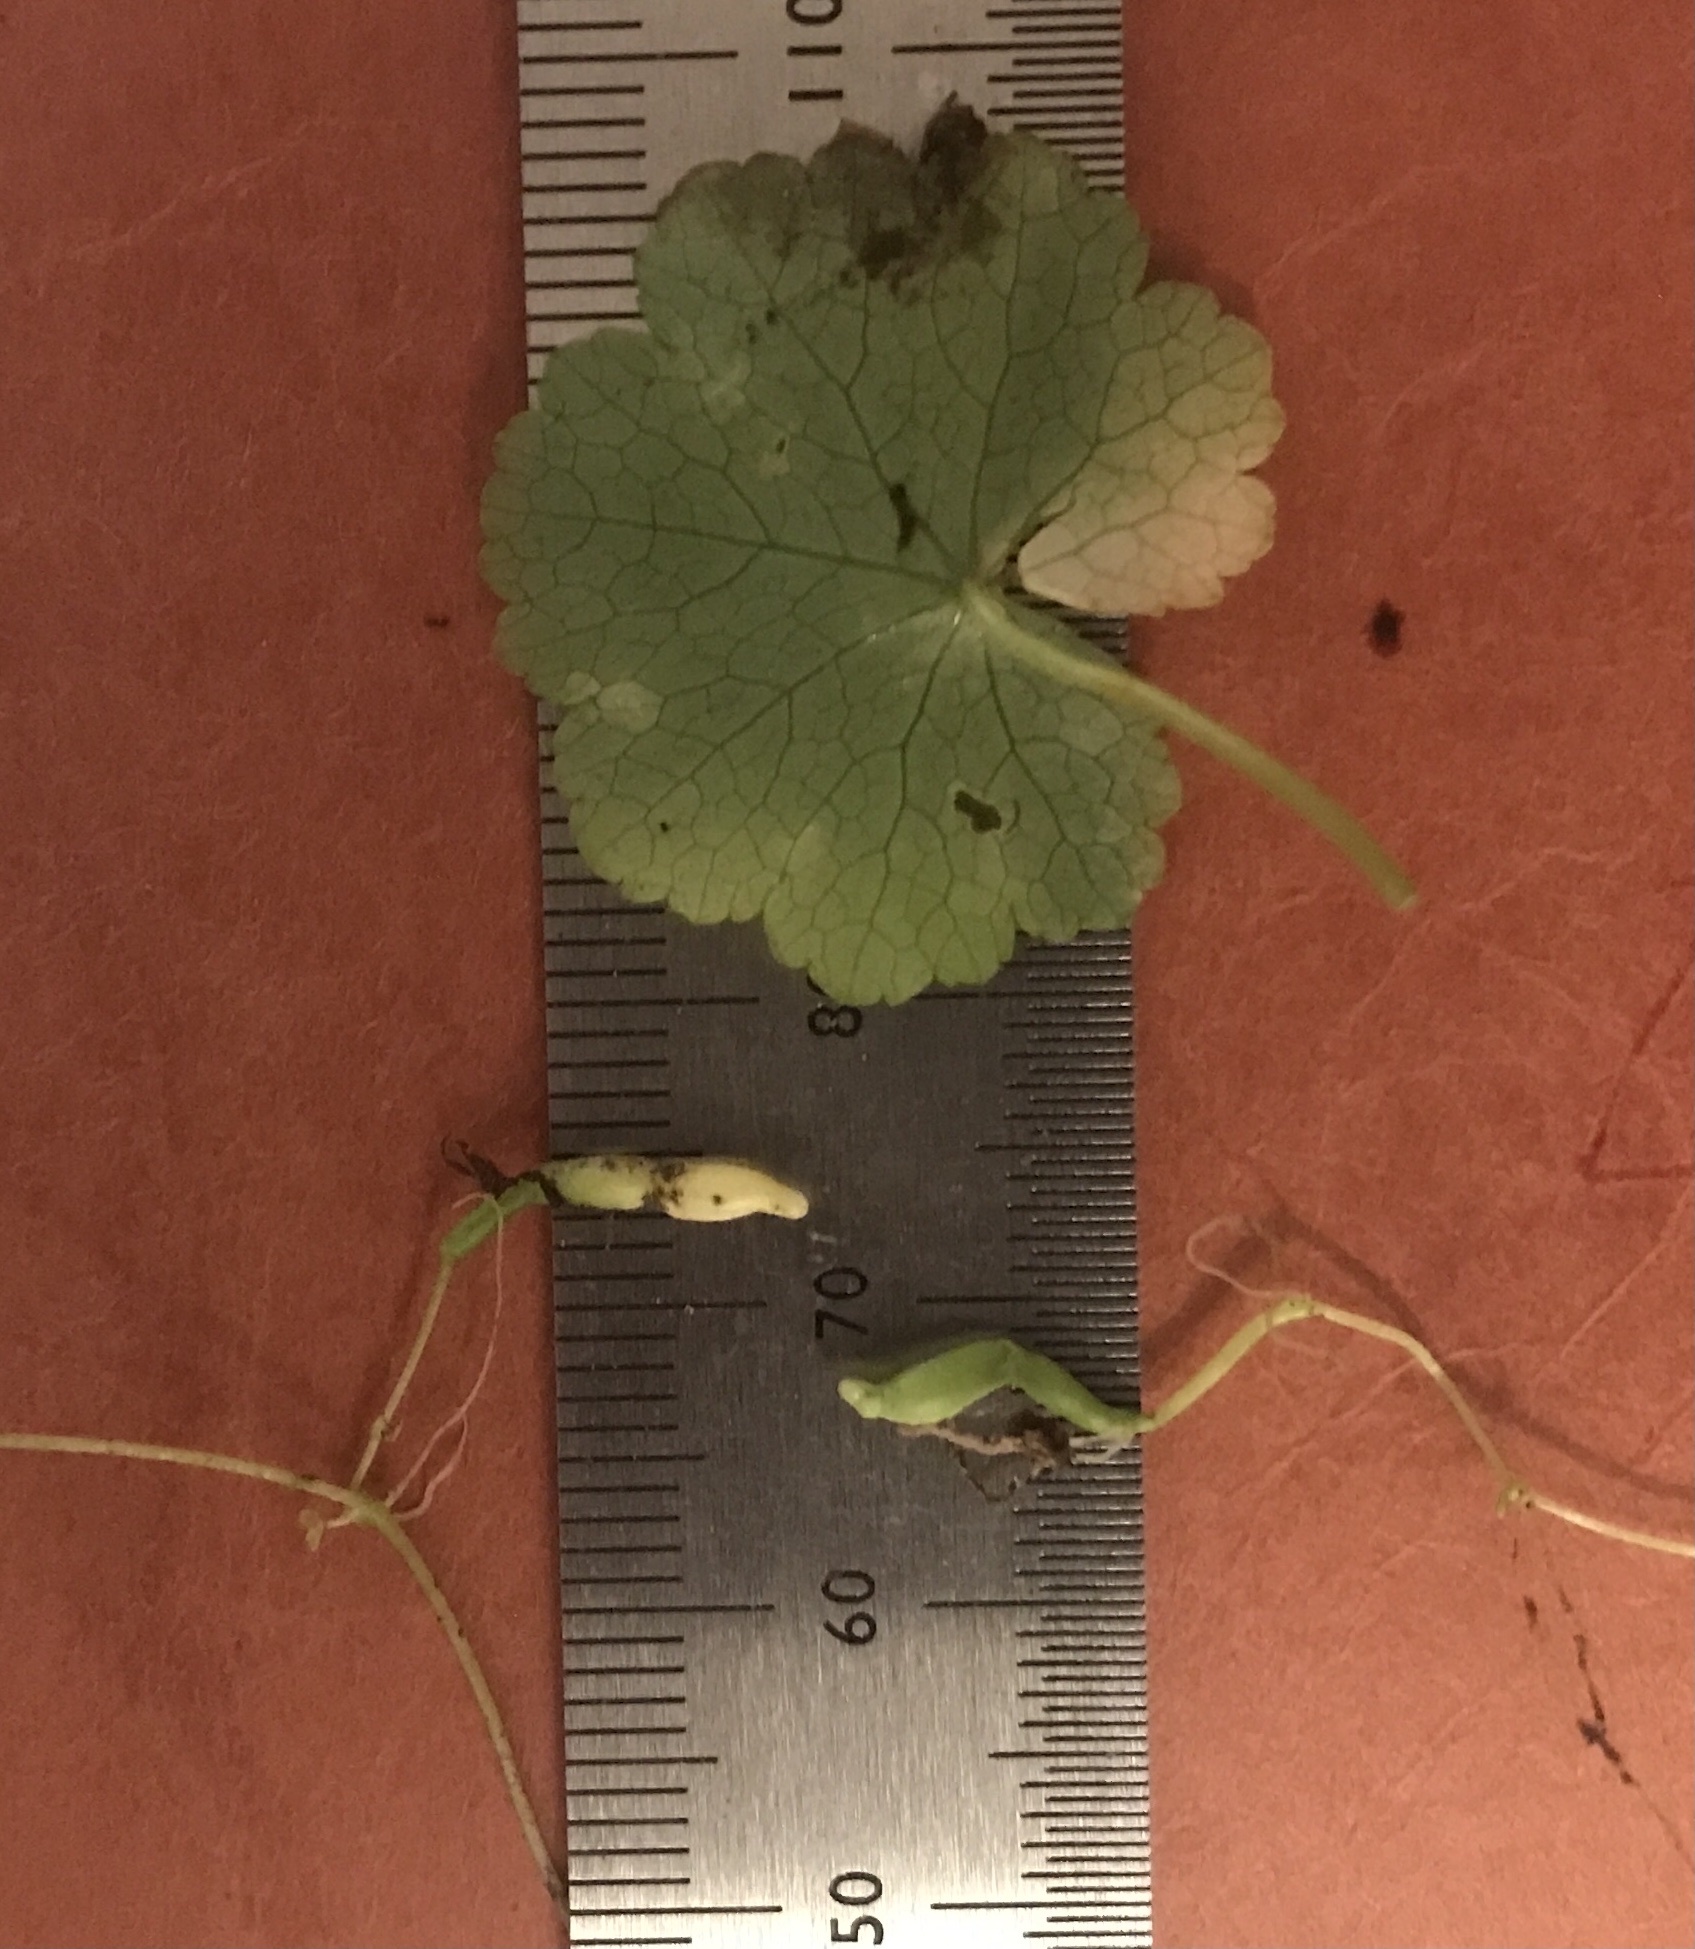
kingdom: Plantae
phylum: Tracheophyta
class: Magnoliopsida
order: Apiales
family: Araliaceae
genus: Hydrocotyle
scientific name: Hydrocotyle americana
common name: American water-pennywort
